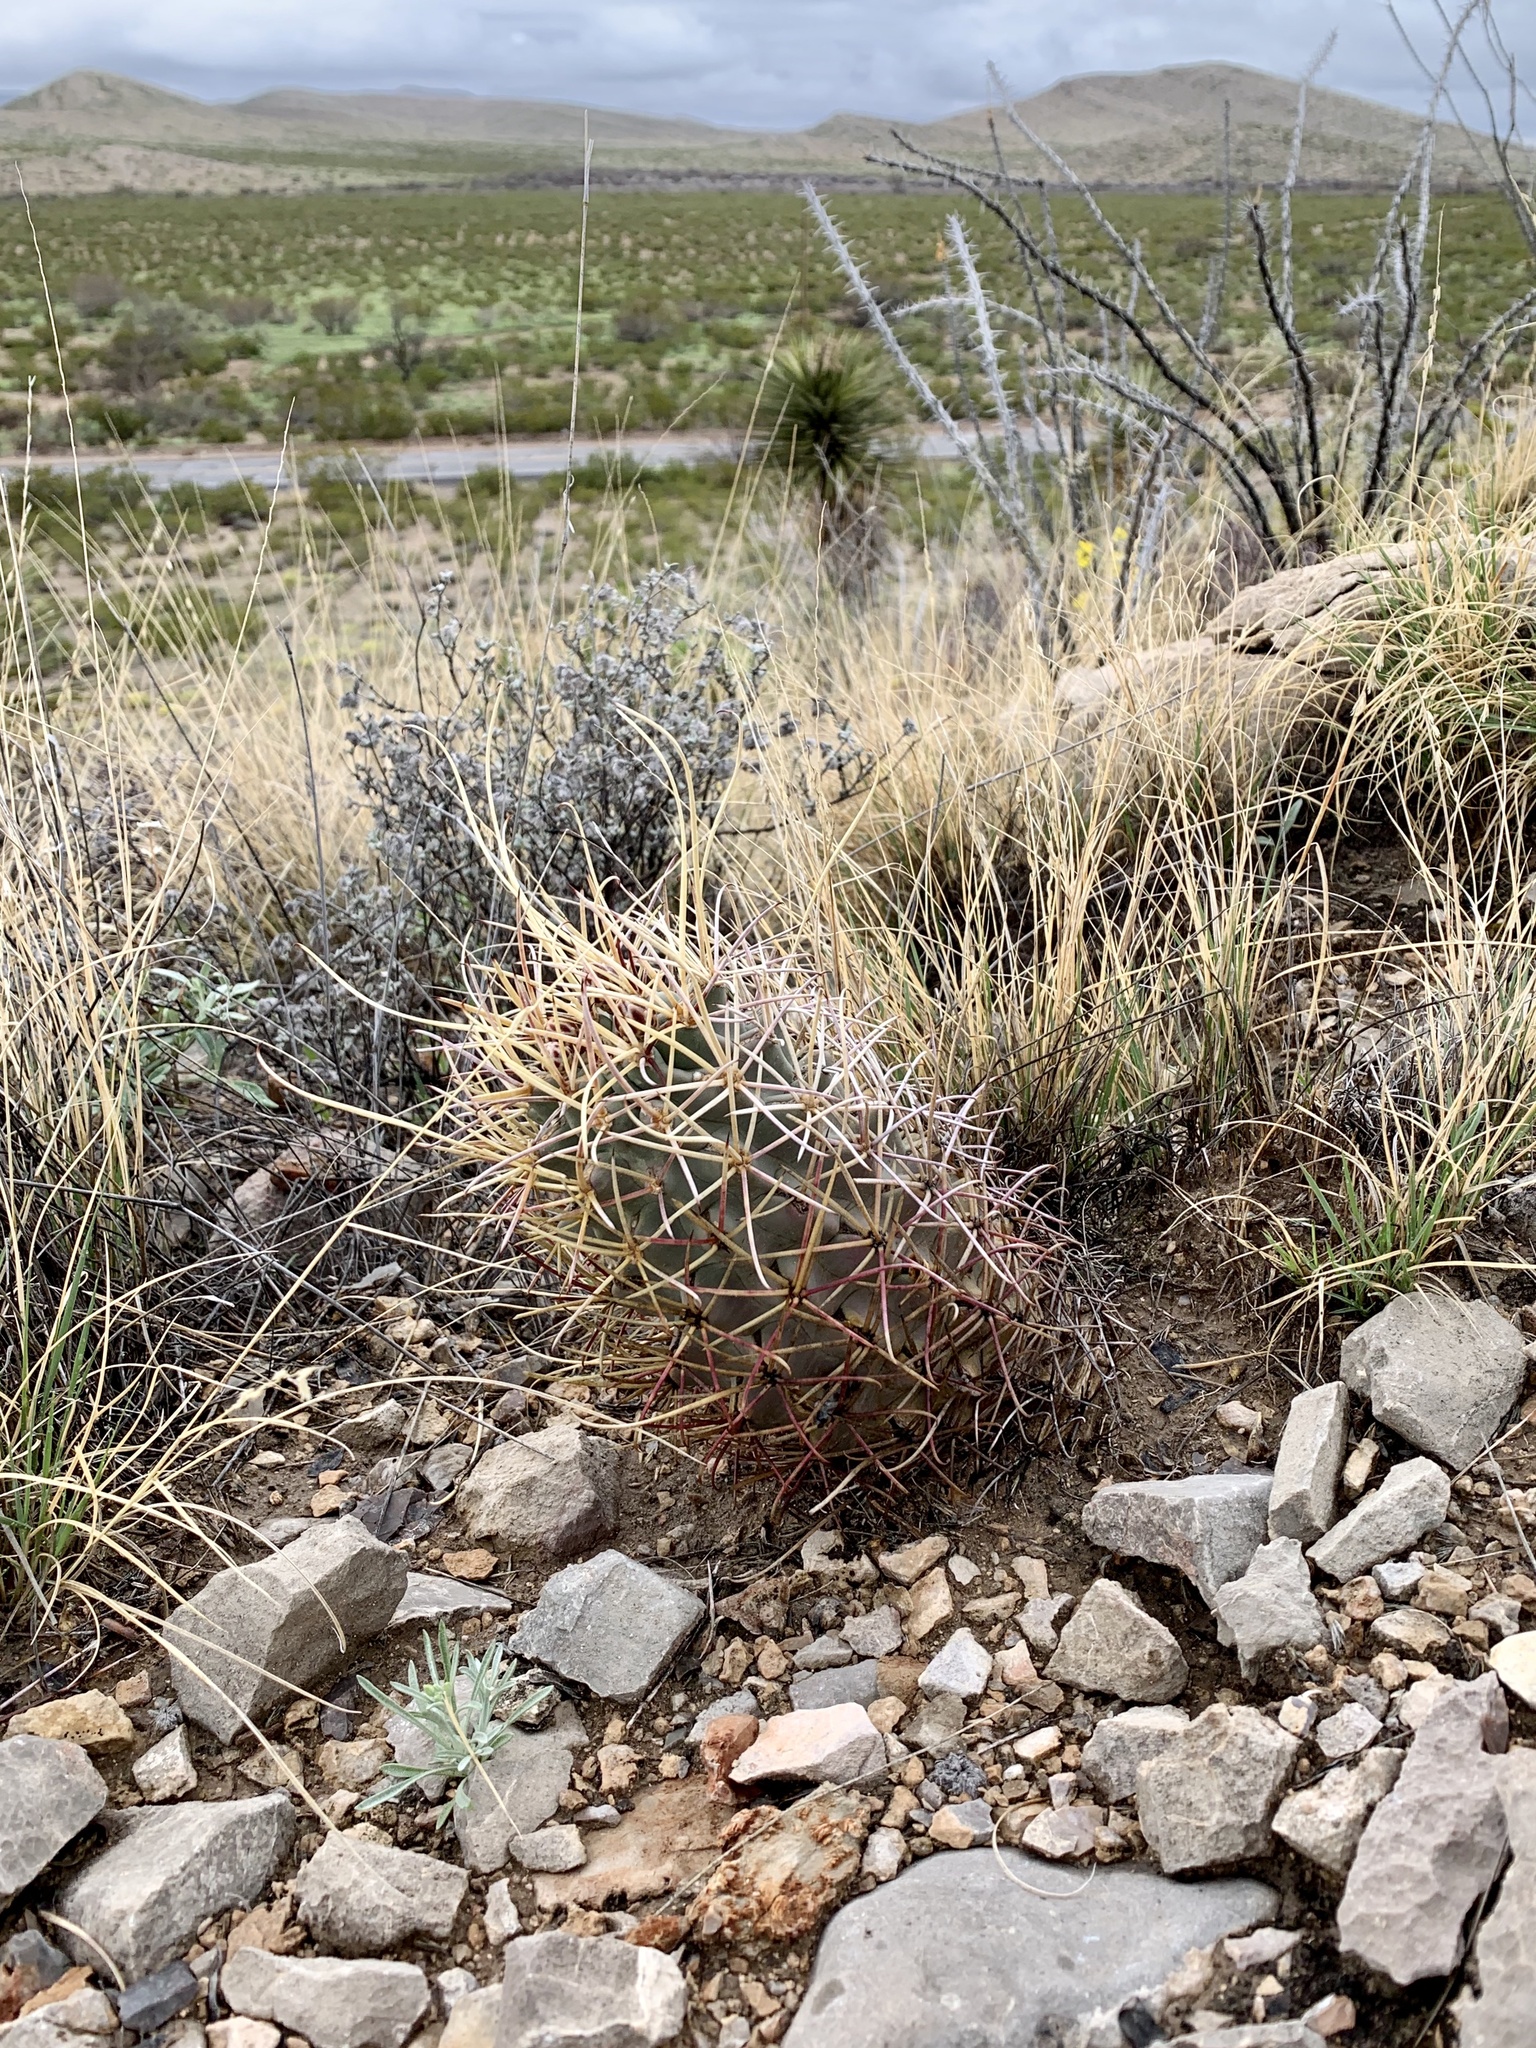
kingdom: Plantae
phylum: Tracheophyta
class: Magnoliopsida
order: Caryophyllales
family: Cactaceae
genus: Ferocactus
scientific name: Ferocactus uncinatus
